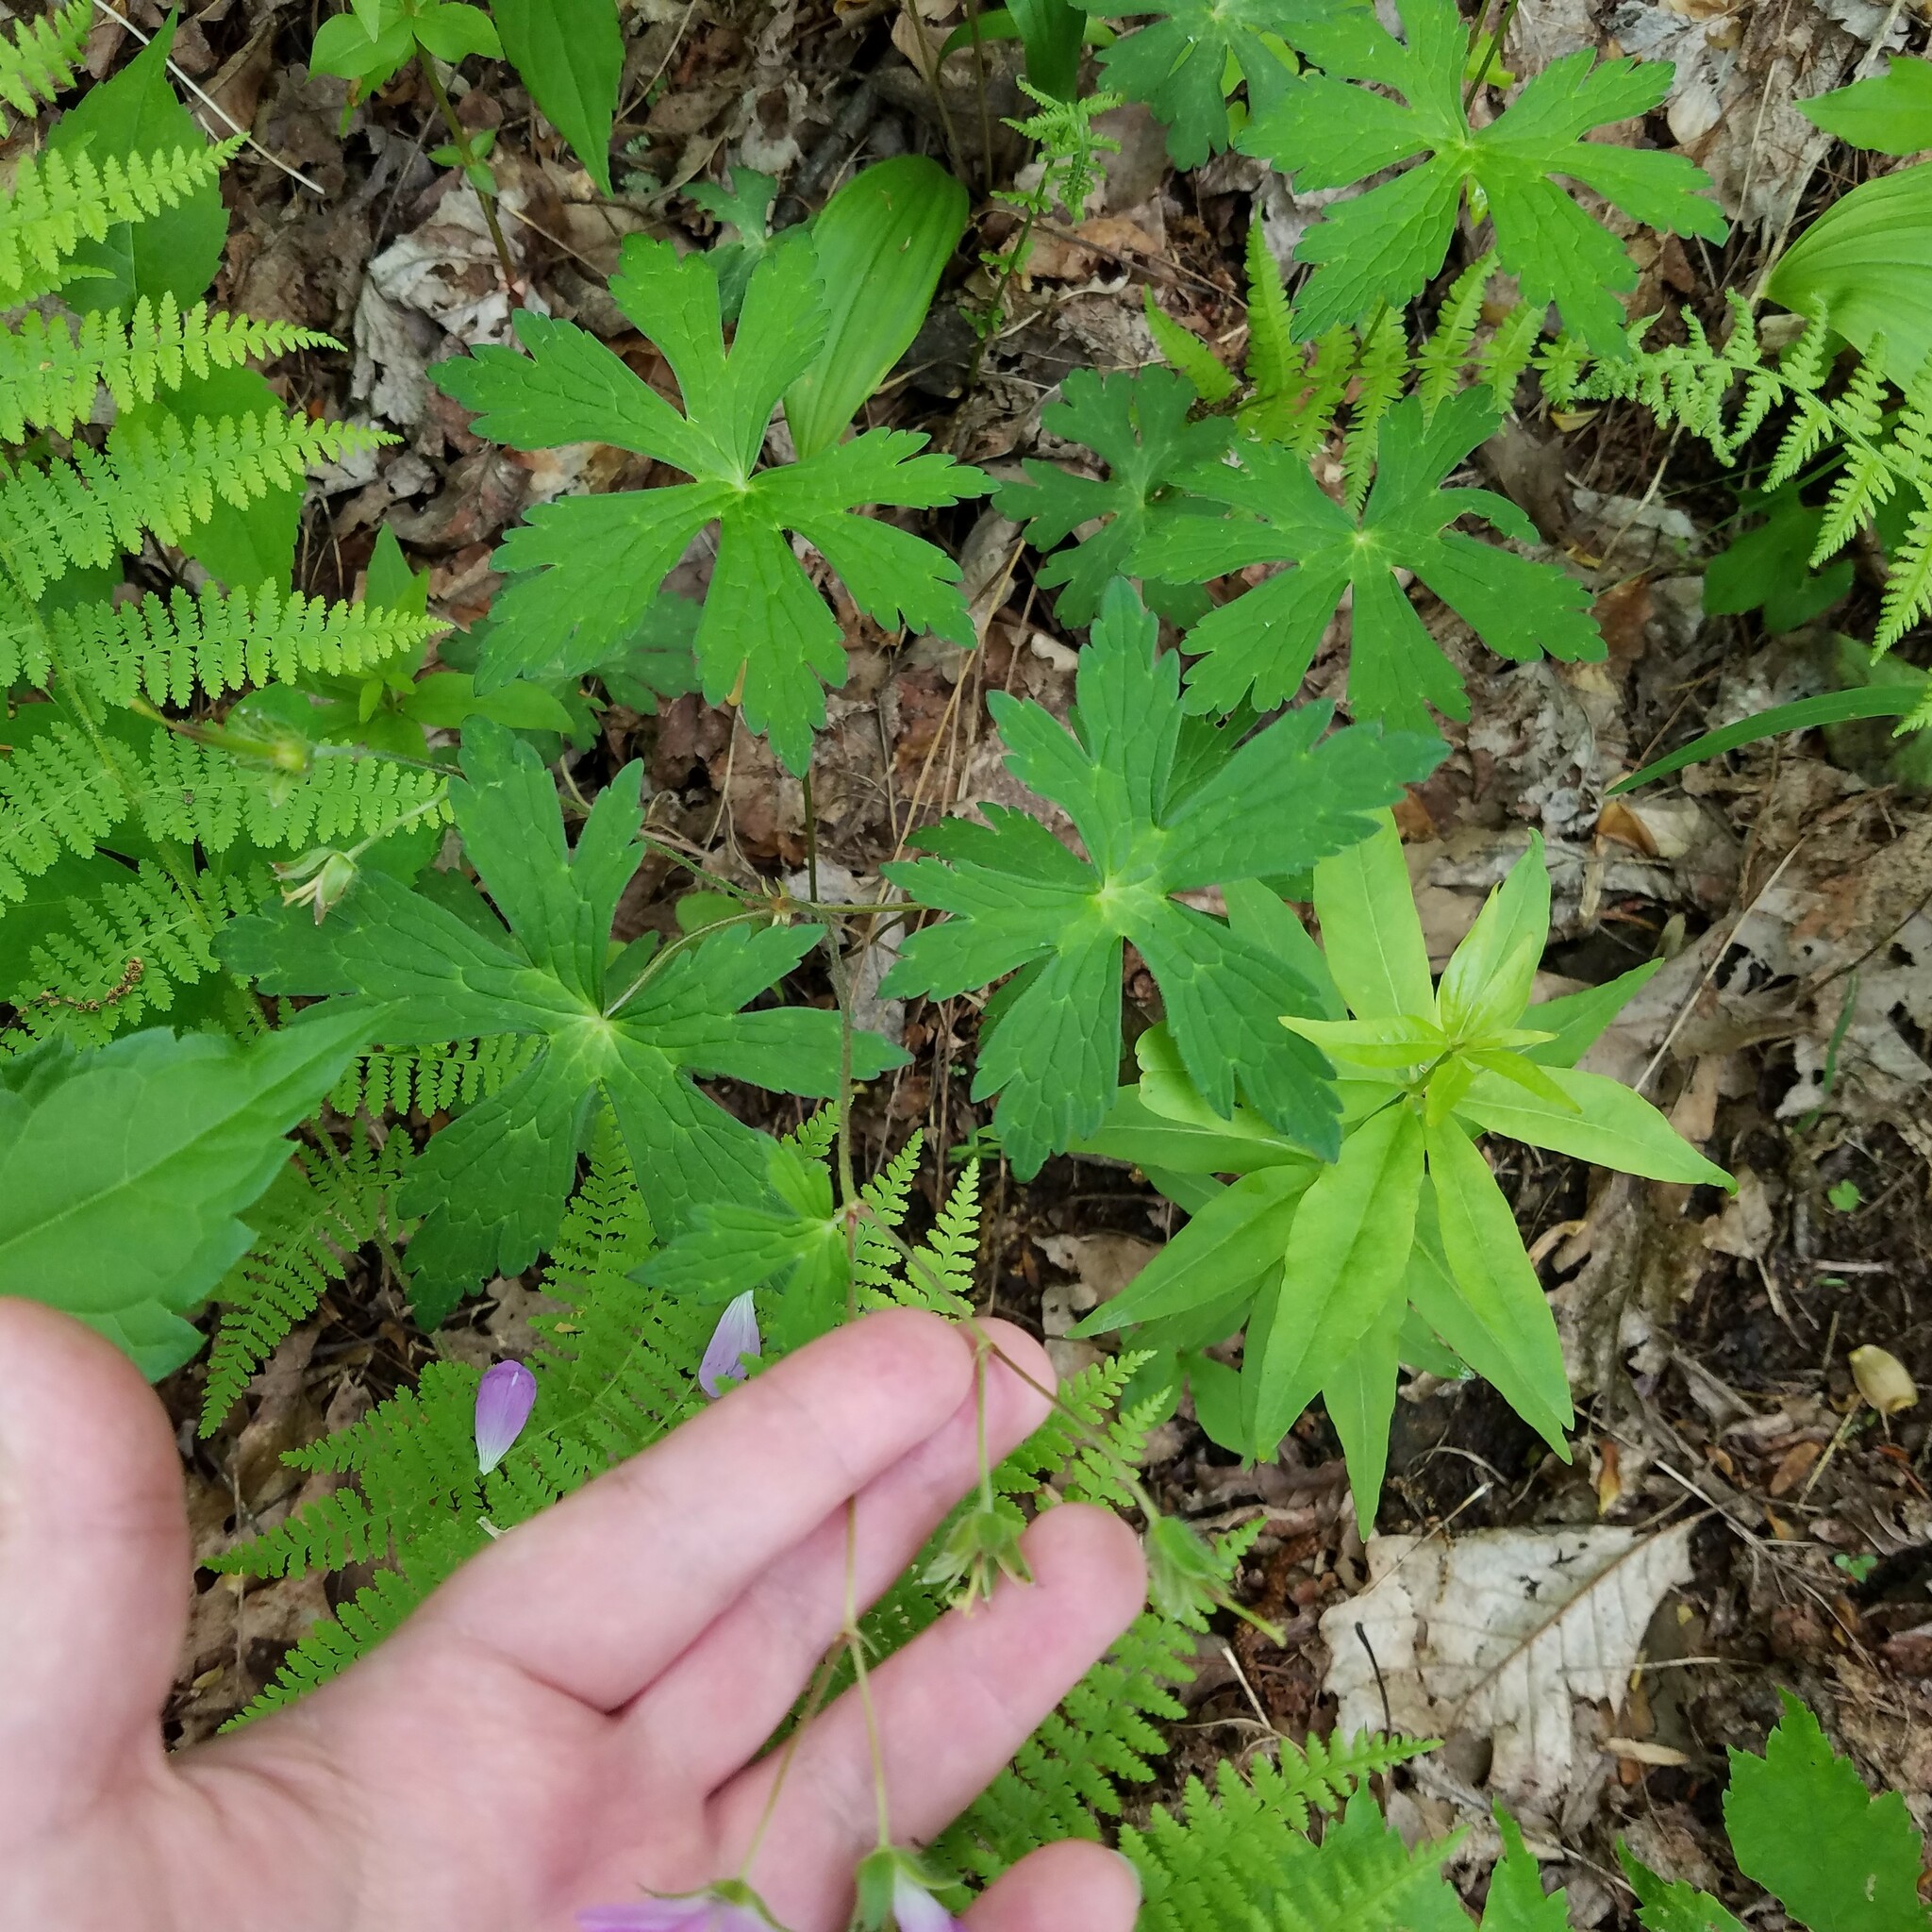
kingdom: Plantae
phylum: Tracheophyta
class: Magnoliopsida
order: Geraniales
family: Geraniaceae
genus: Geranium
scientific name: Geranium maculatum
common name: Spotted geranium
